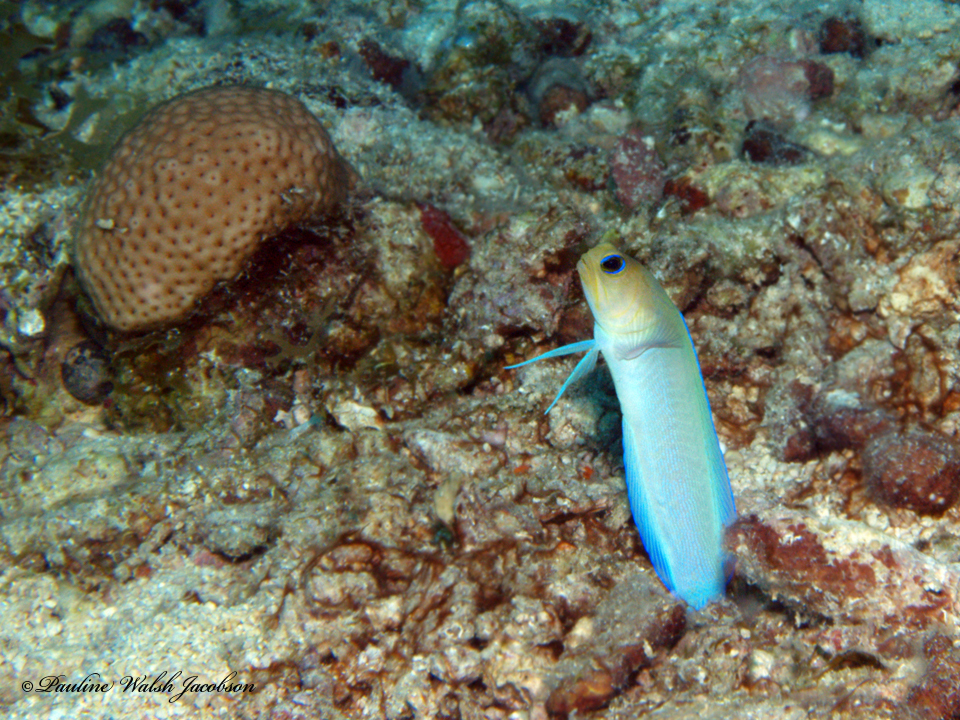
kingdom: Animalia
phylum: Chordata
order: Perciformes
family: Opistognathidae
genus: Opistognathus
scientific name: Opistognathus aurifrons
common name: Yellowhead jawfish
